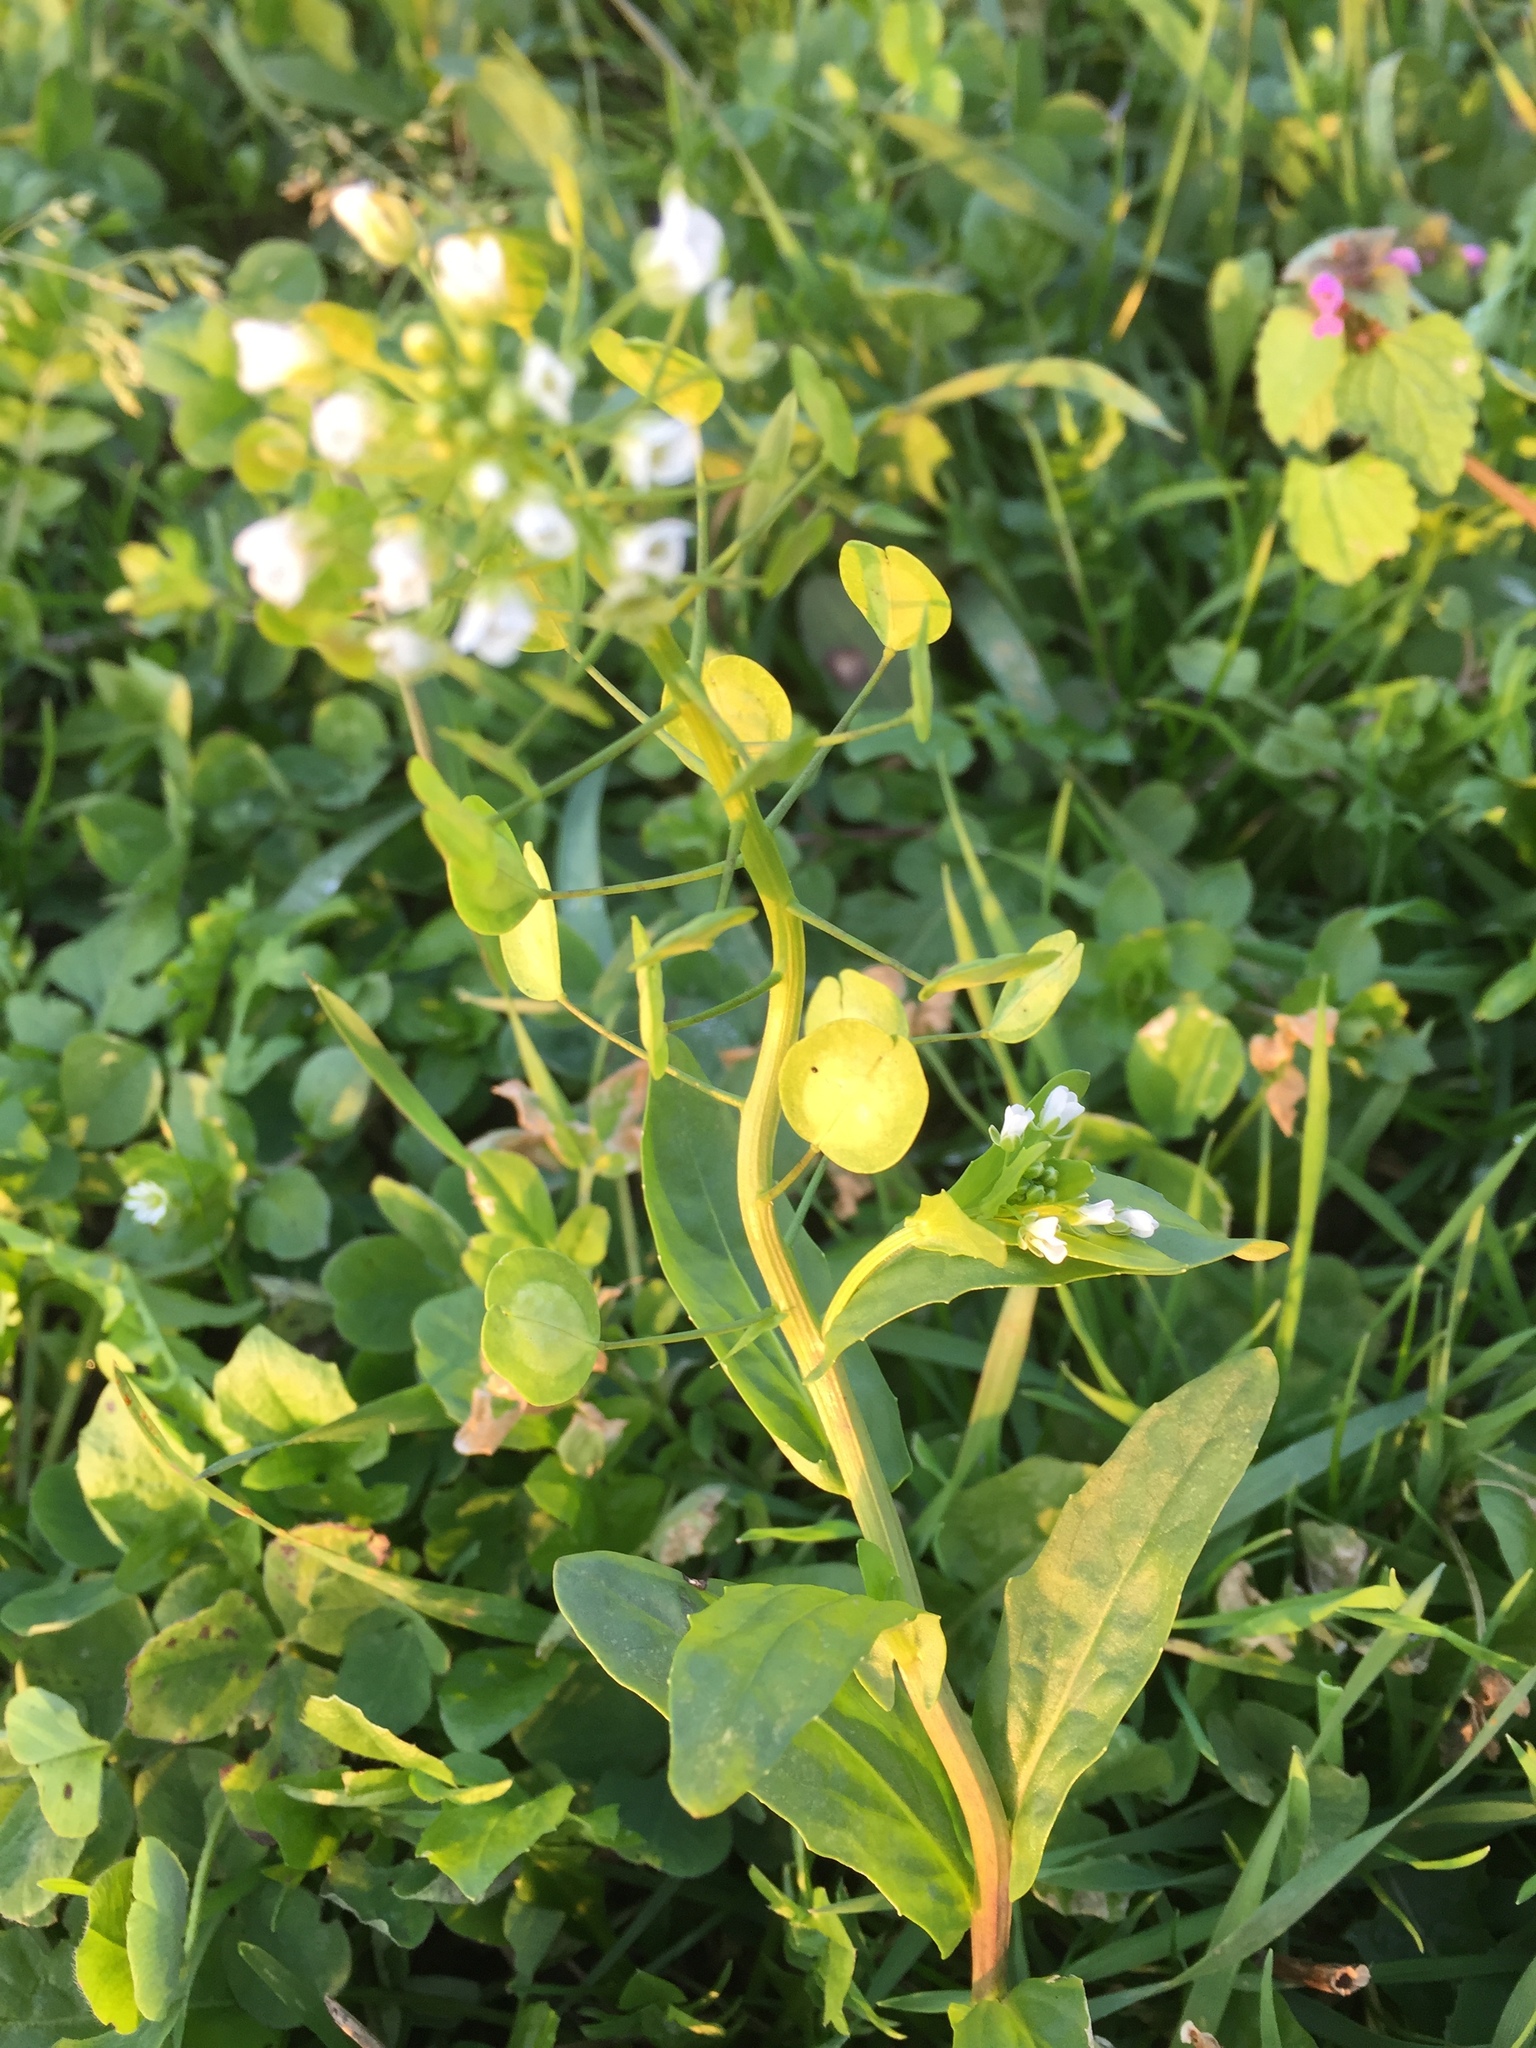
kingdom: Plantae
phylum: Tracheophyta
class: Magnoliopsida
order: Brassicales
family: Brassicaceae
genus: Thlaspi
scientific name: Thlaspi arvense
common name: Field pennycress
